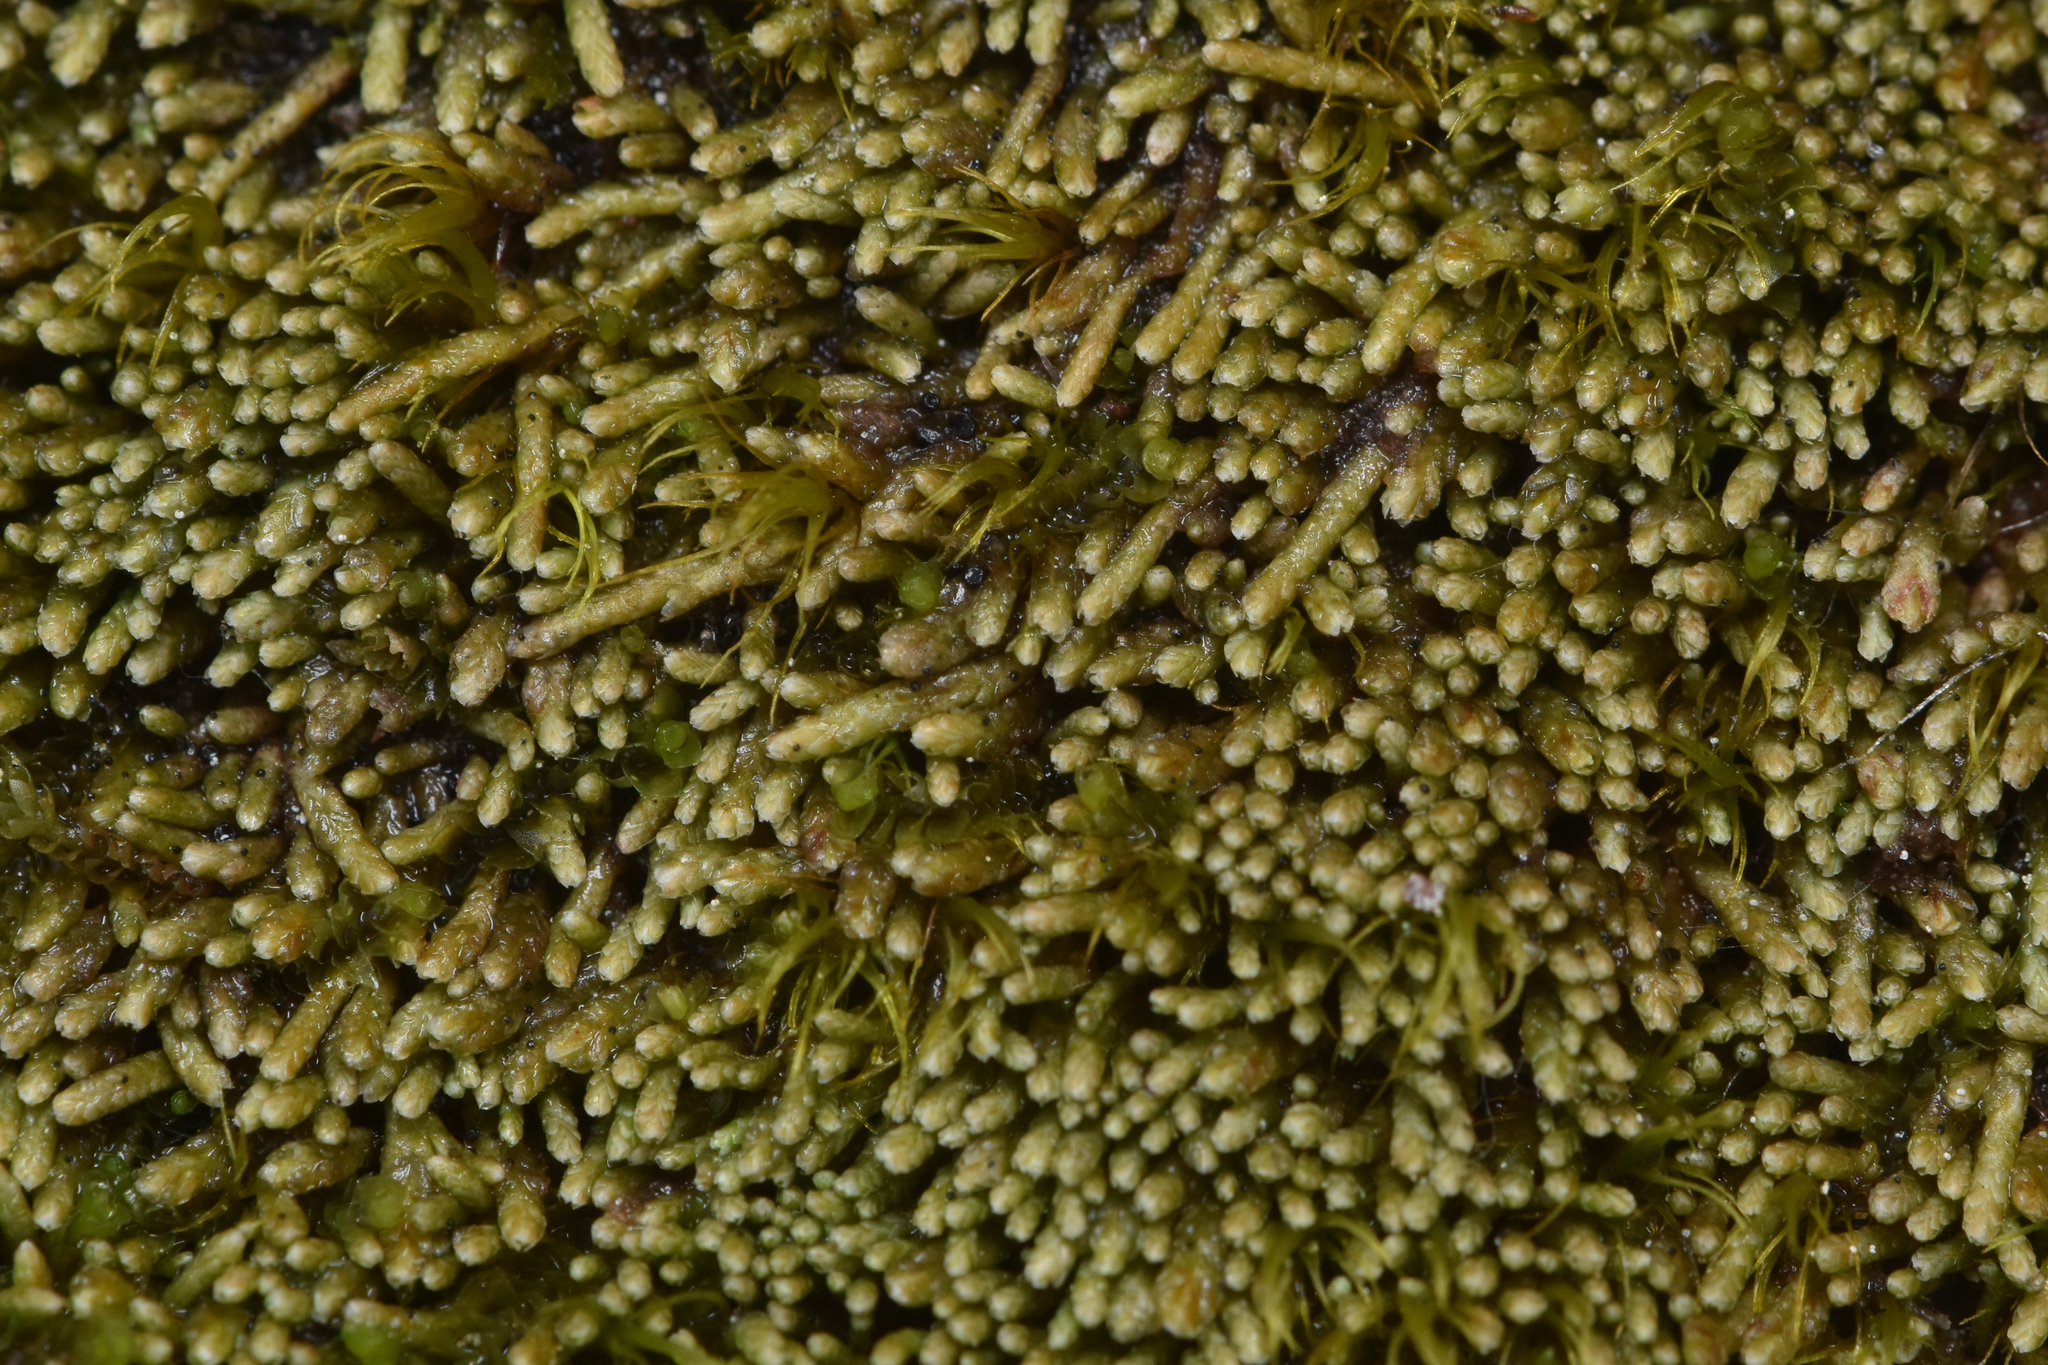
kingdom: Plantae
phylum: Marchantiophyta
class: Jungermanniopsida
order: Jungermanniales
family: Gymnomitriaceae
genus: Gymnomitrion
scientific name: Gymnomitrion obtusum
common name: White frostwort
